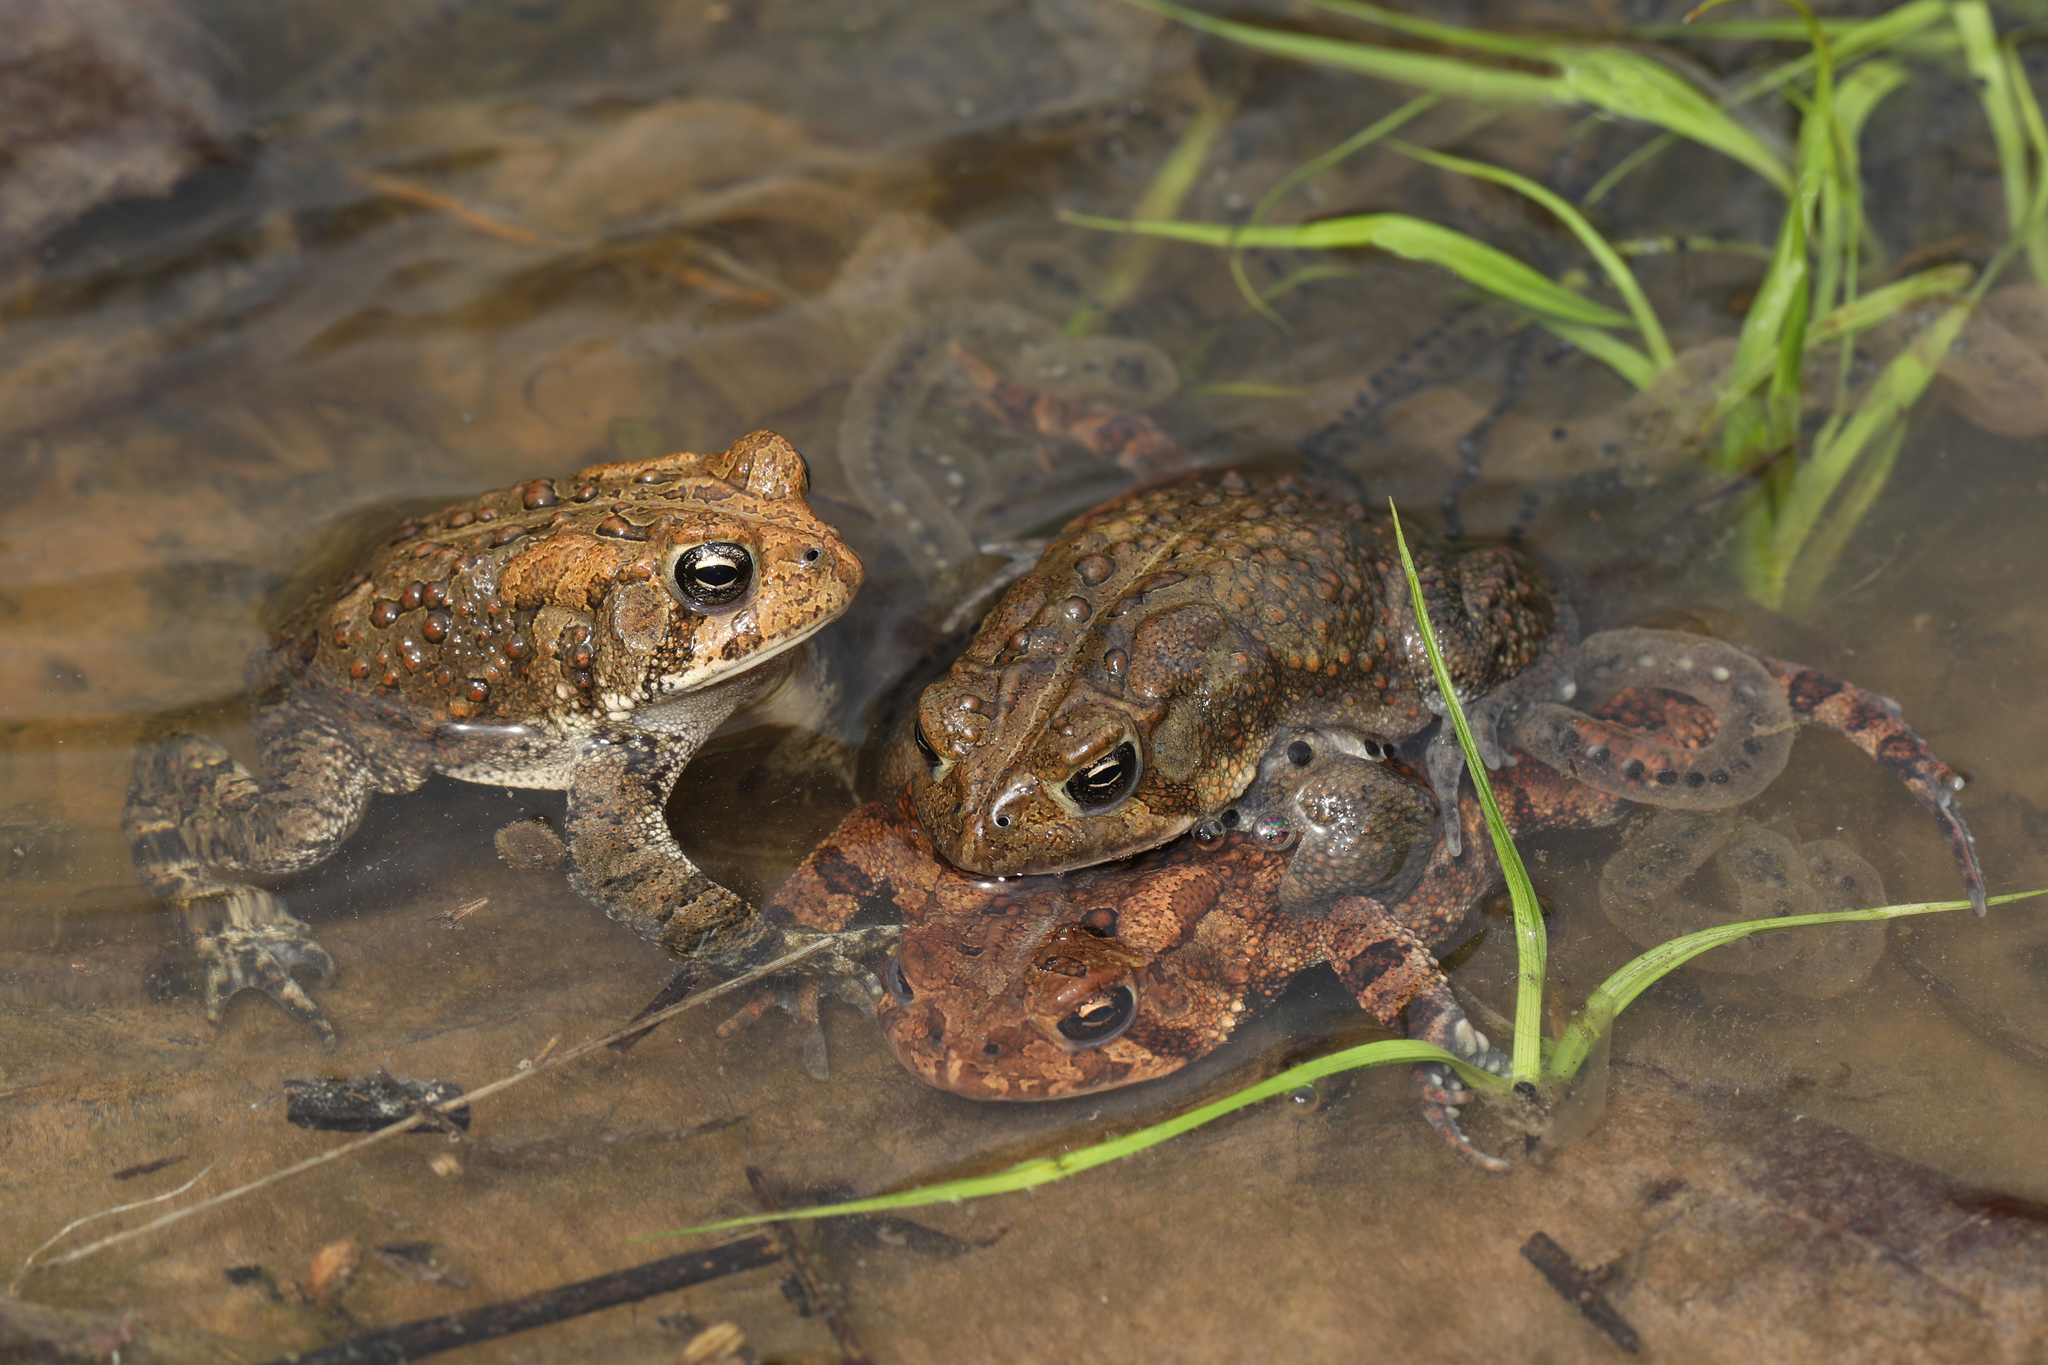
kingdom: Animalia
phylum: Chordata
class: Amphibia
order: Anura
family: Bufonidae
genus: Anaxyrus
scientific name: Anaxyrus americanus
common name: American toad
